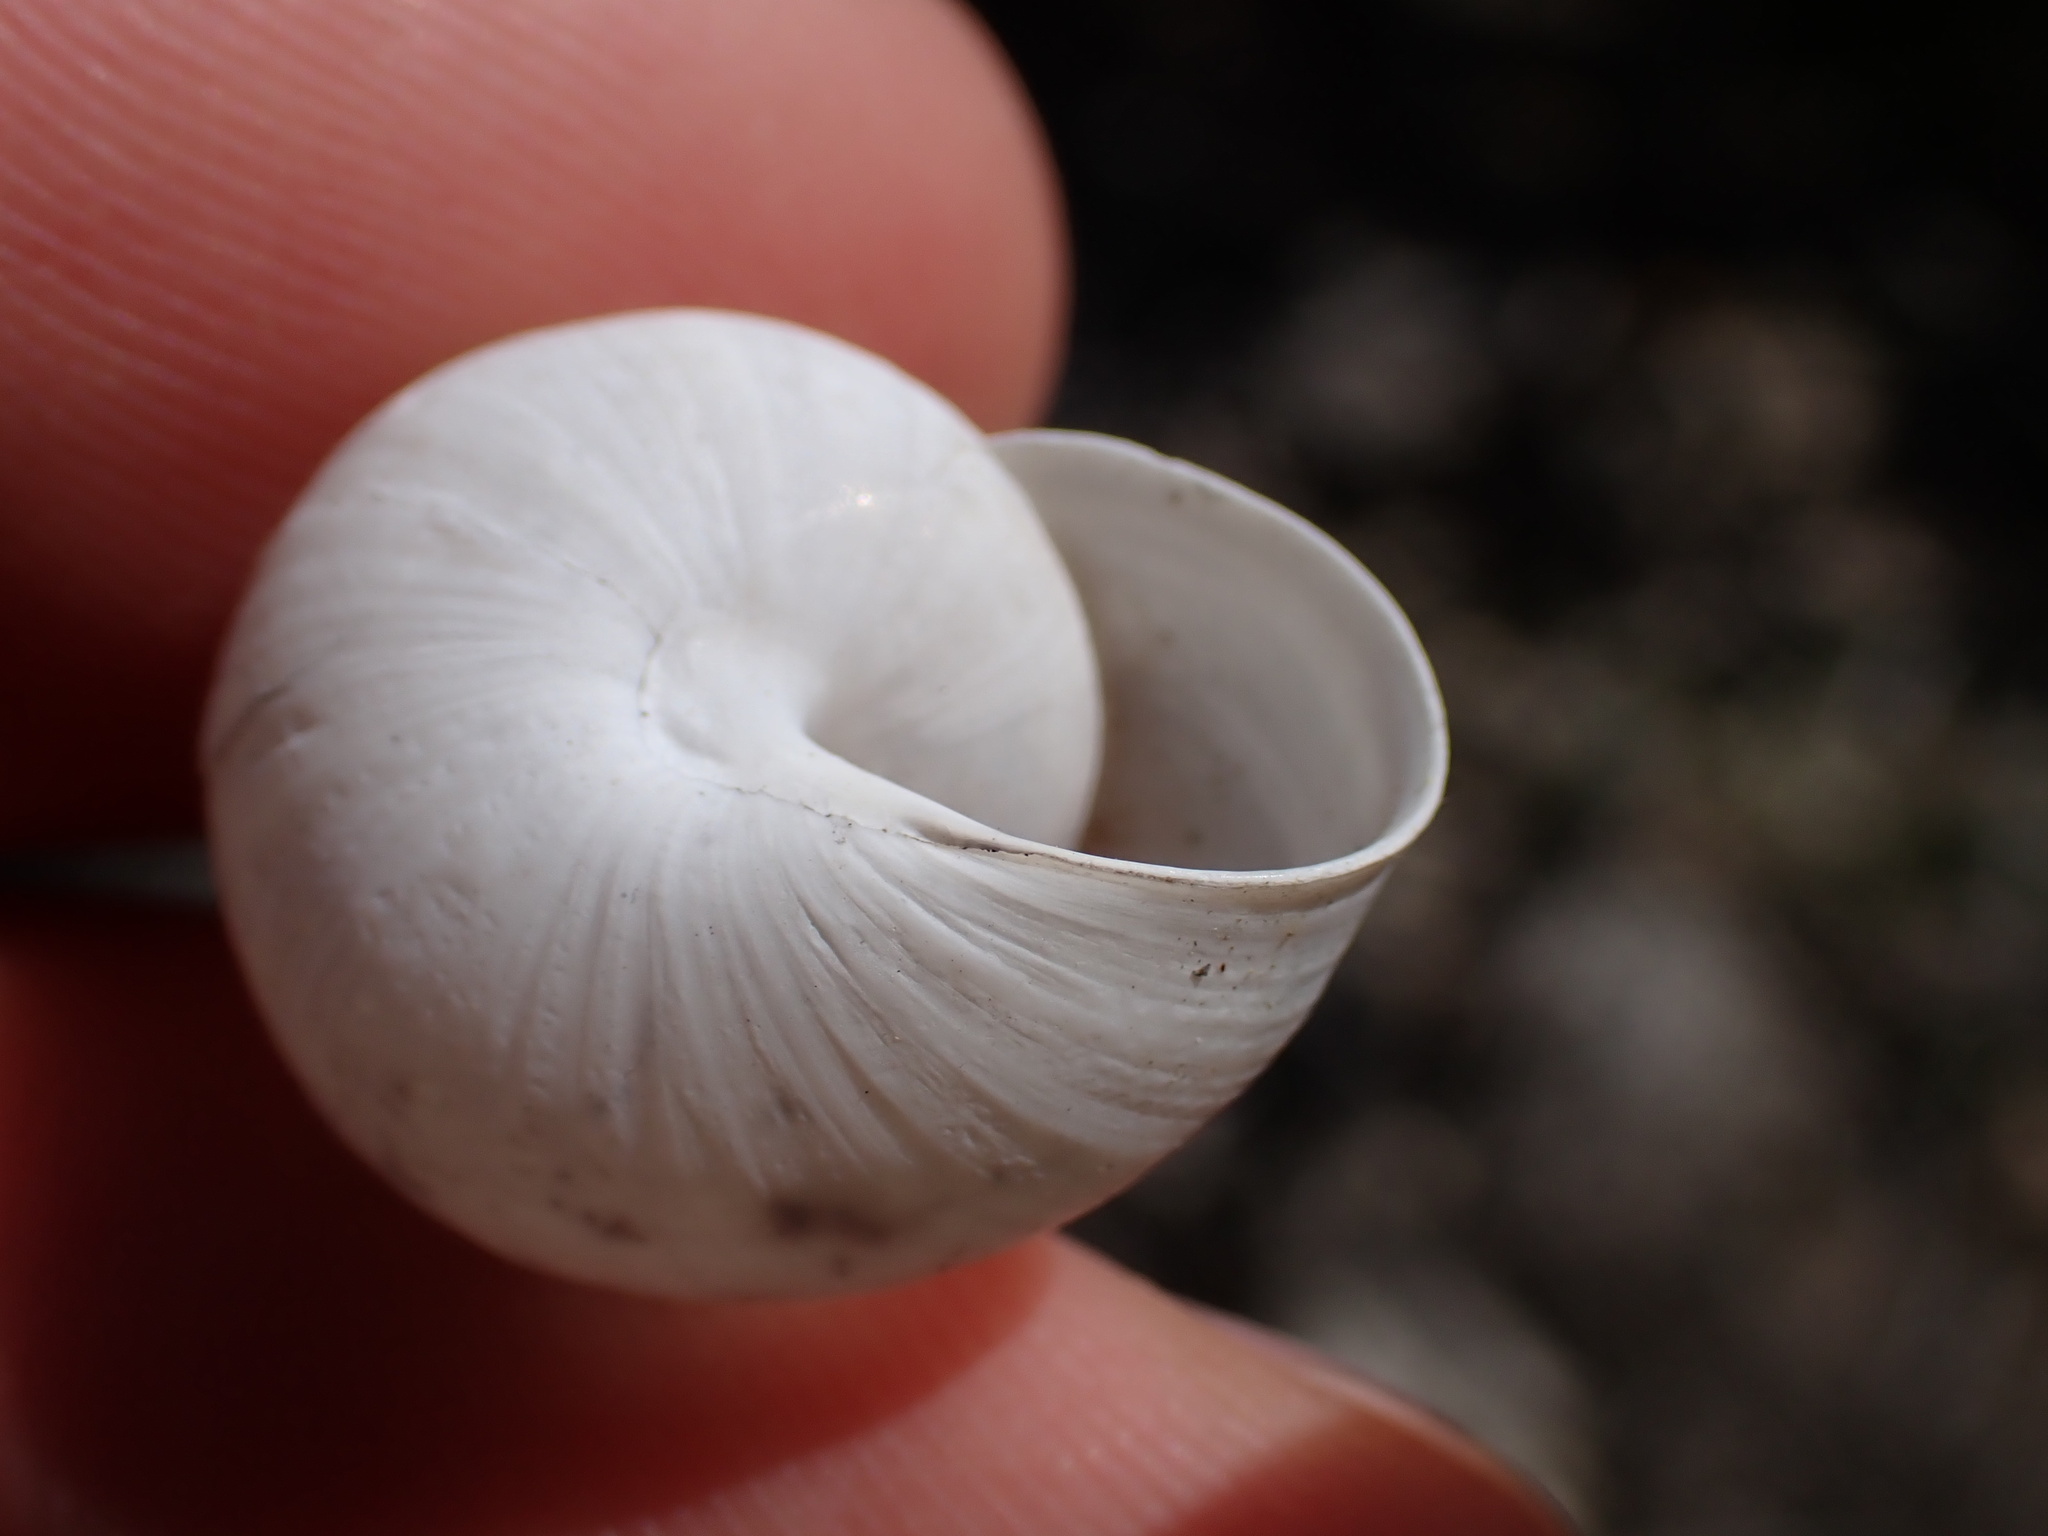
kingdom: Animalia
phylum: Mollusca
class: Gastropoda
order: Stylommatophora
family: Helicidae
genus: Pseudotachea
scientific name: Pseudotachea splendida
